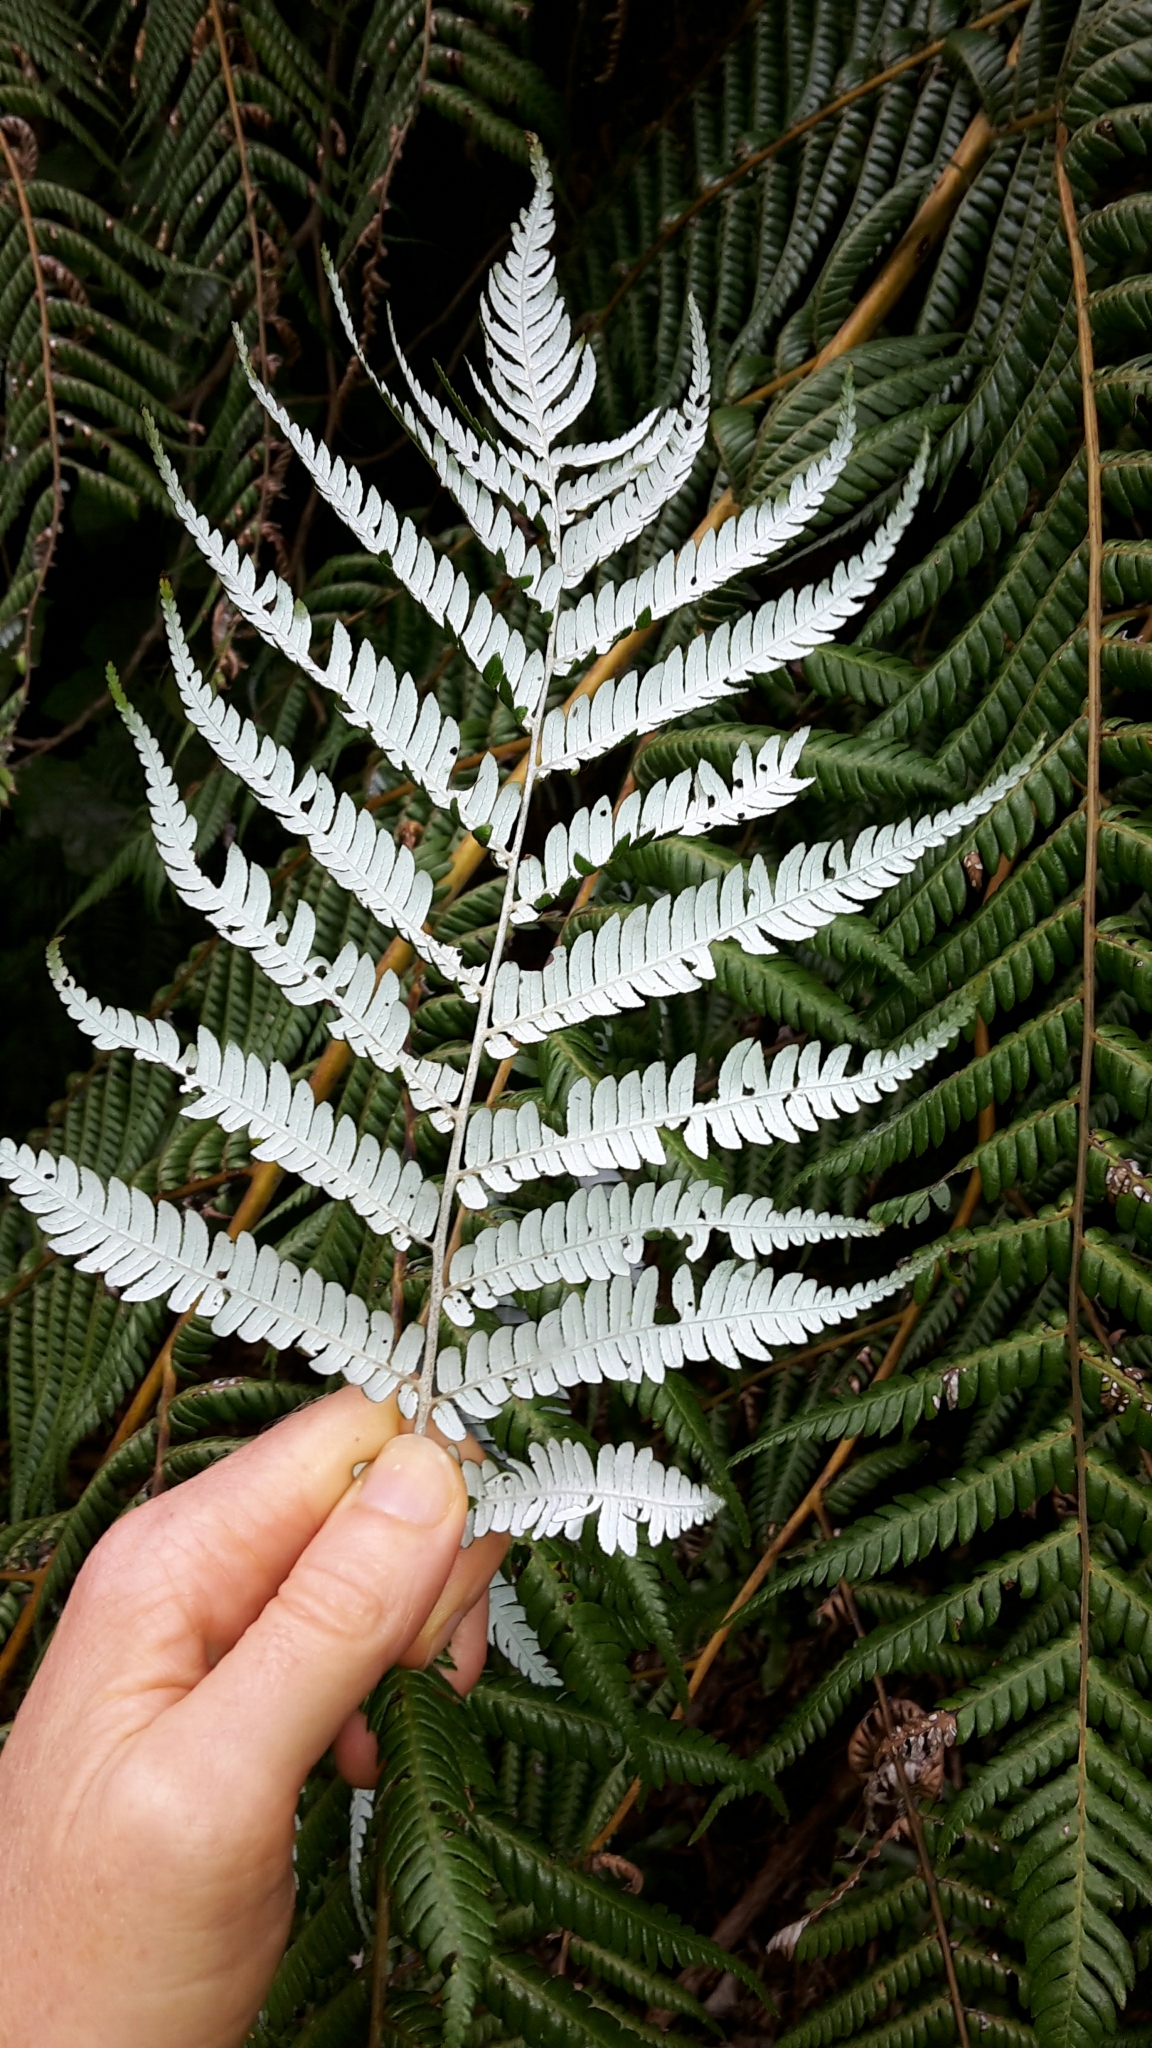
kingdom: Plantae
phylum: Tracheophyta
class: Polypodiopsida
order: Cyatheales
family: Cyatheaceae
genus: Alsophila
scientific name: Alsophila dealbata
